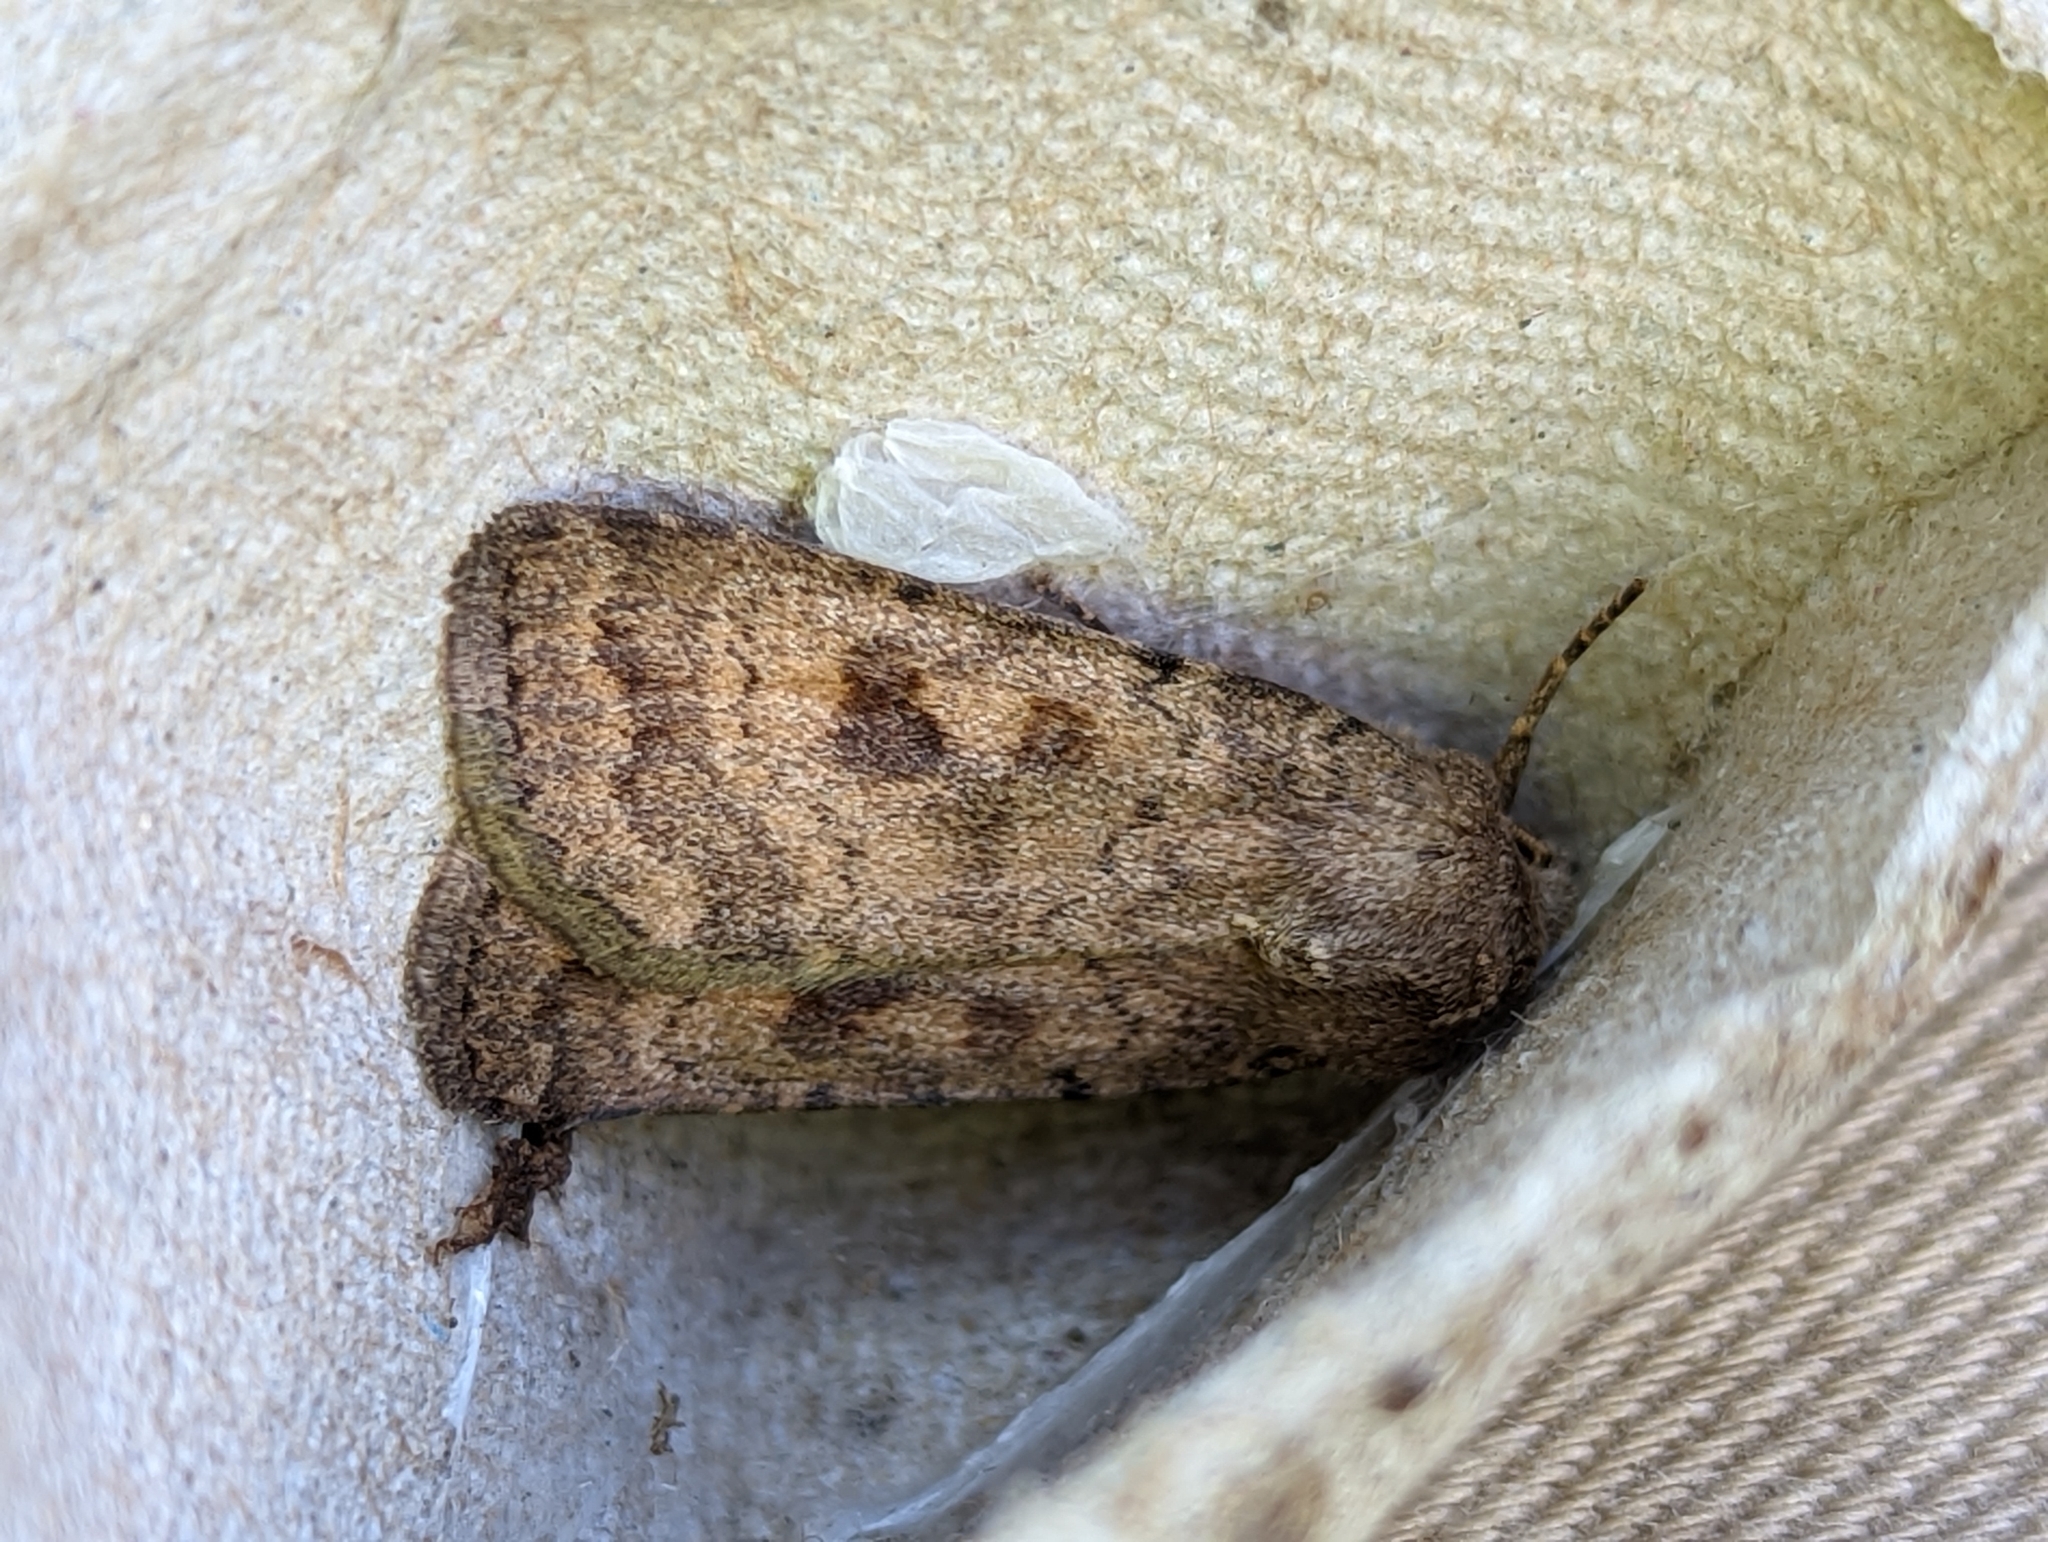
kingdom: Animalia
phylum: Arthropoda
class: Insecta
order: Lepidoptera
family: Noctuidae
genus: Caradrina
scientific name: Caradrina morpheus
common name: Mottled rustic
